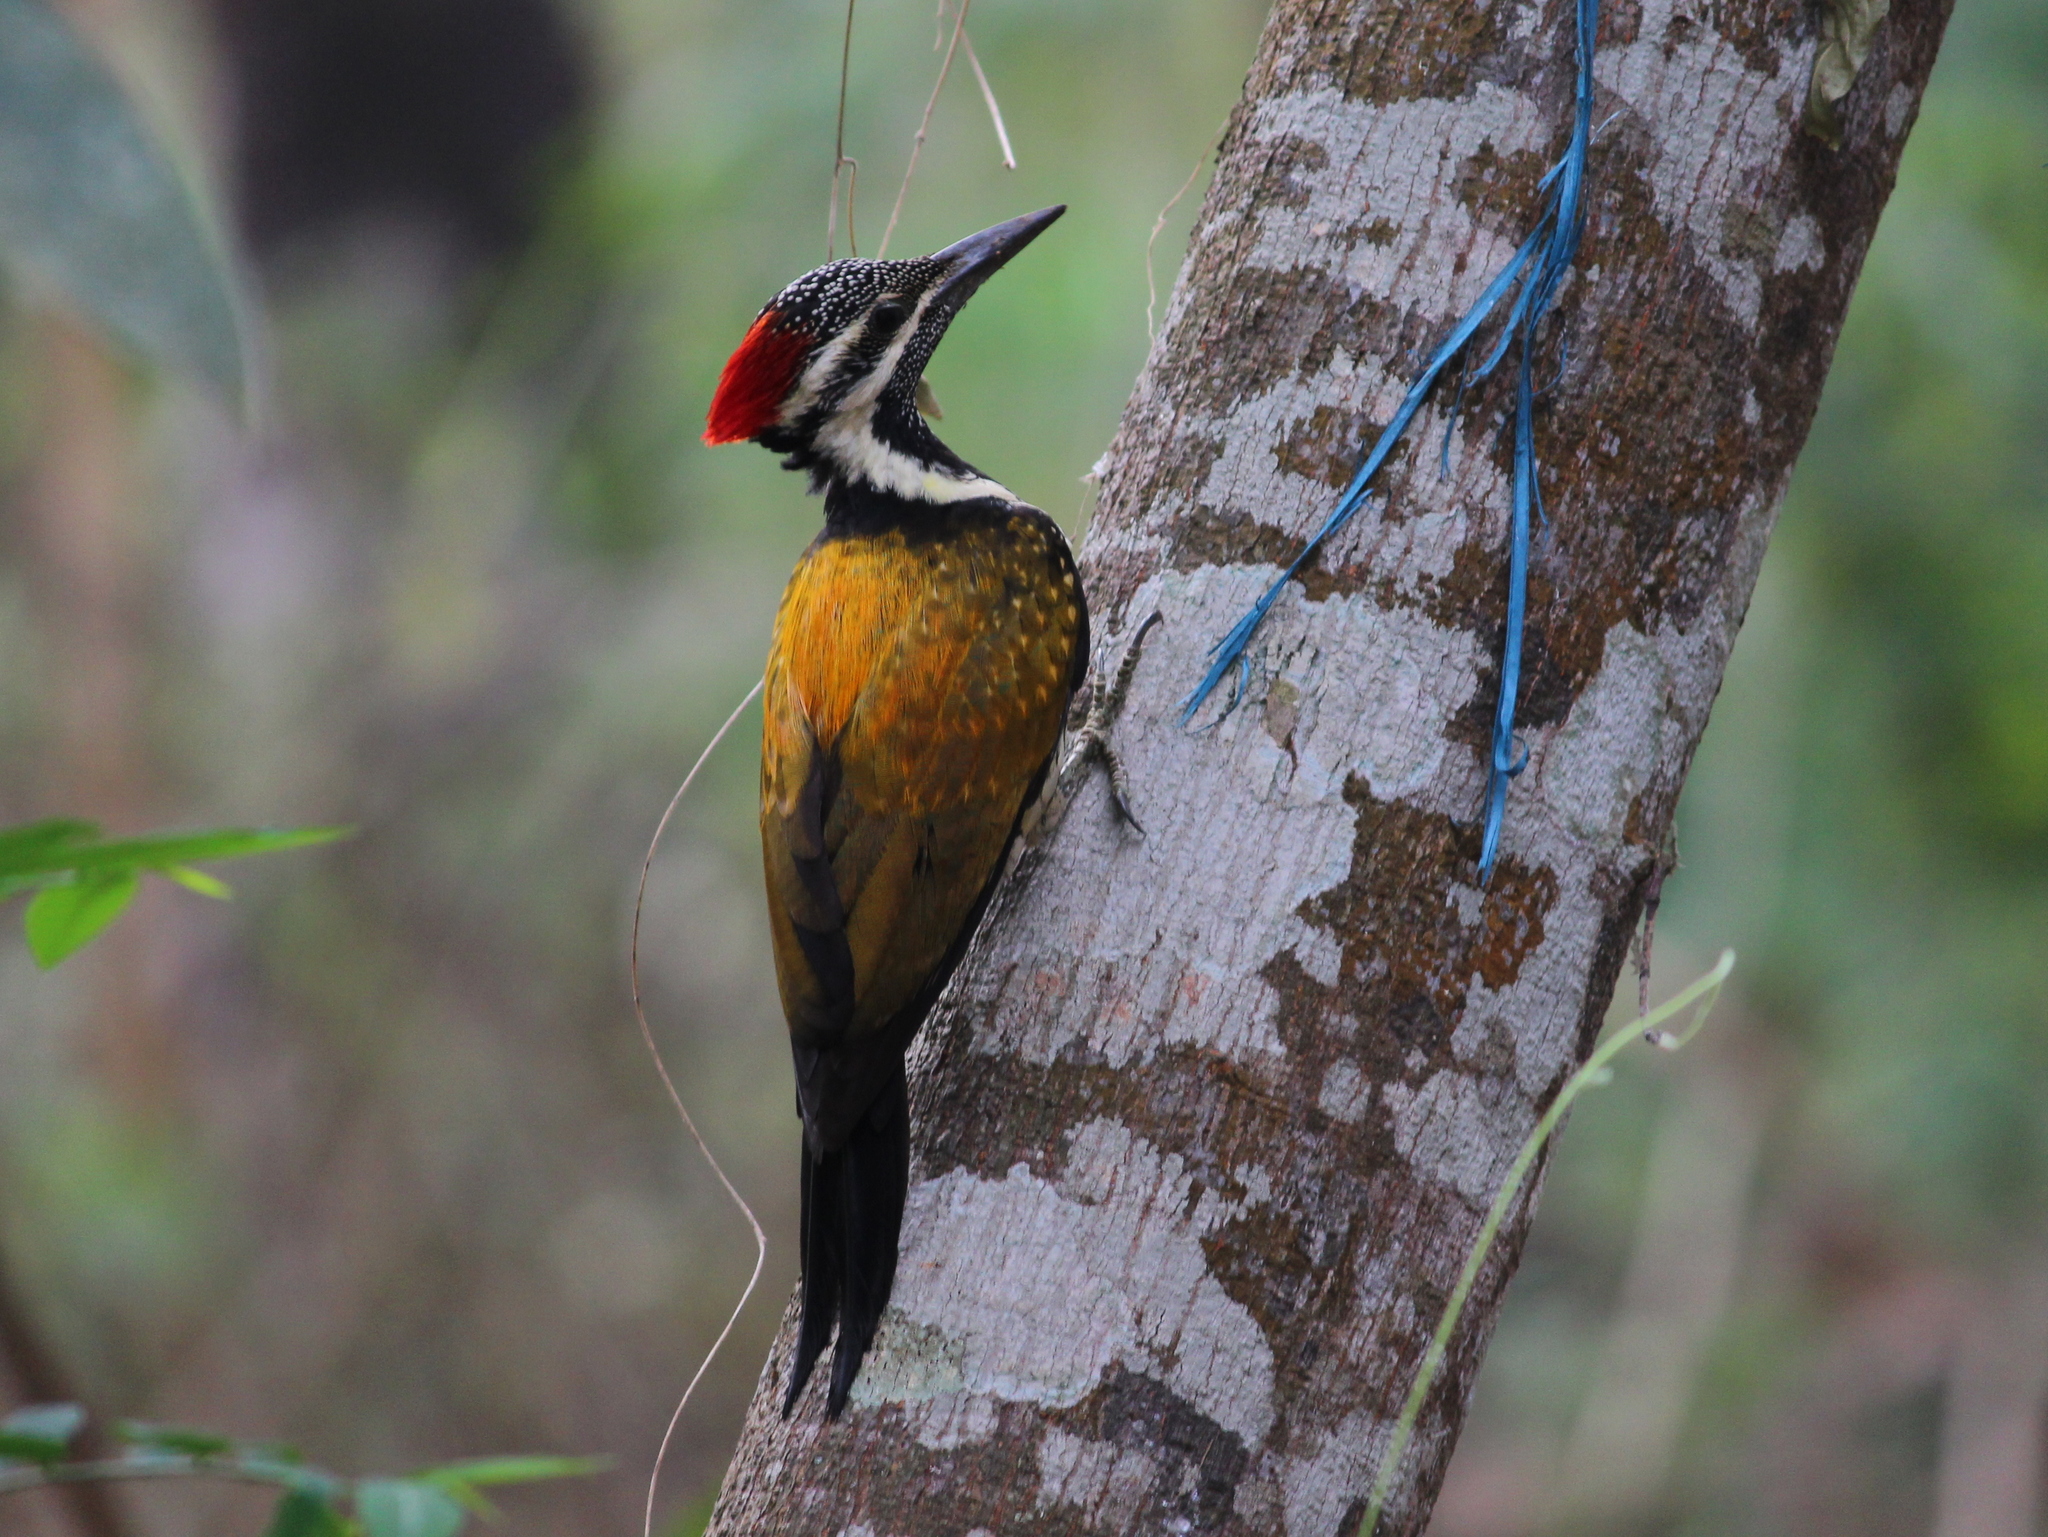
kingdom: Animalia
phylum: Chordata
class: Aves
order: Piciformes
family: Picidae
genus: Dinopium
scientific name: Dinopium benghalense
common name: Black-rumped flameback
